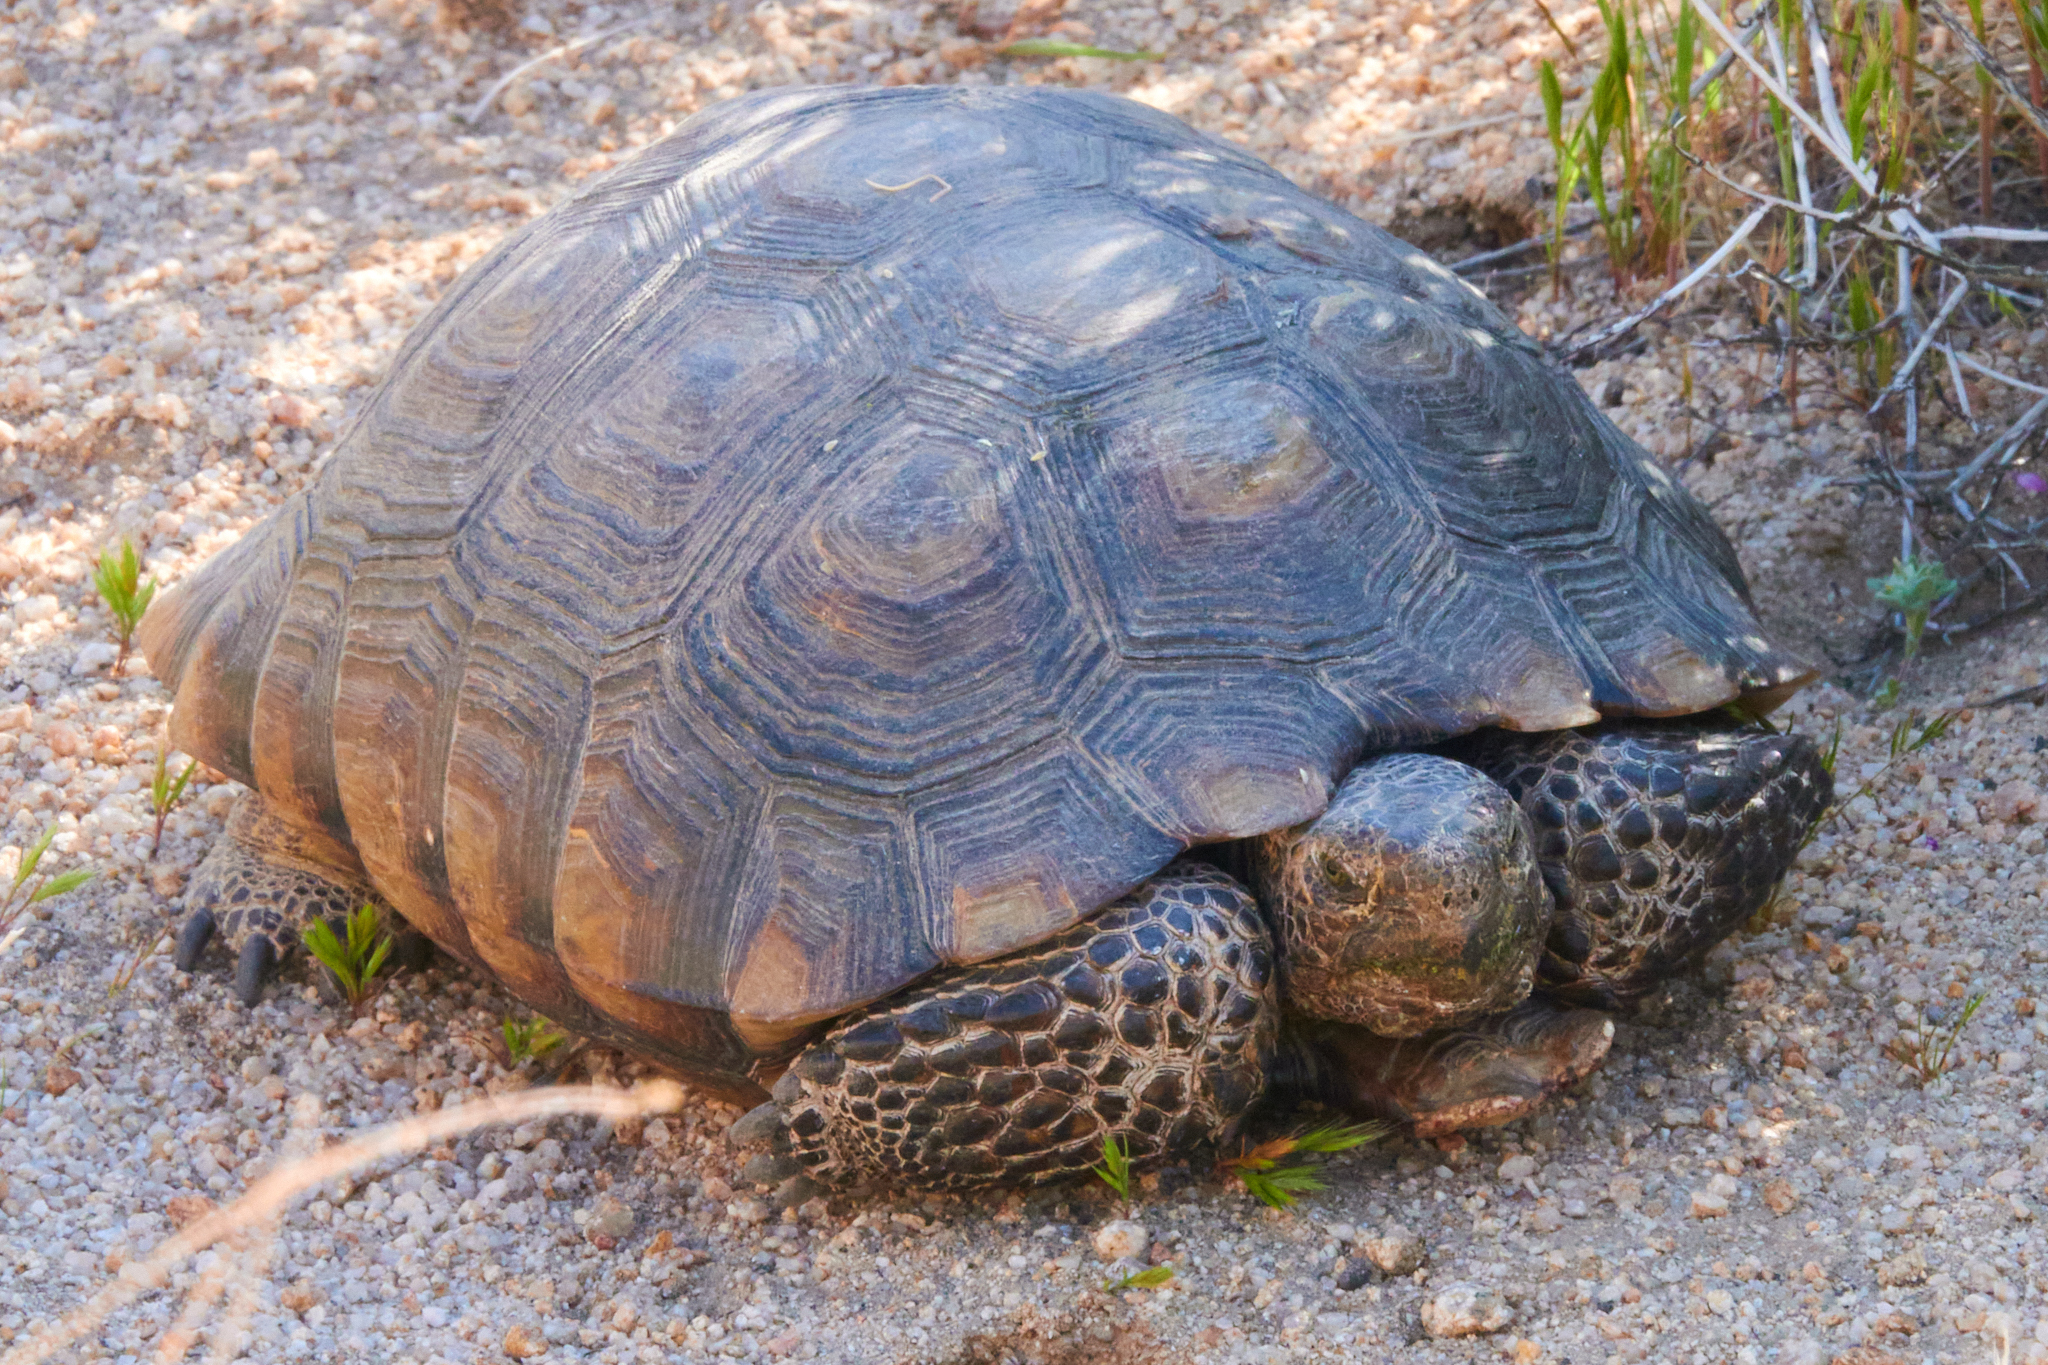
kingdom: Animalia
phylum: Chordata
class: Testudines
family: Testudinidae
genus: Gopherus
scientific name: Gopherus agassizii
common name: Mojave desert tortoise
